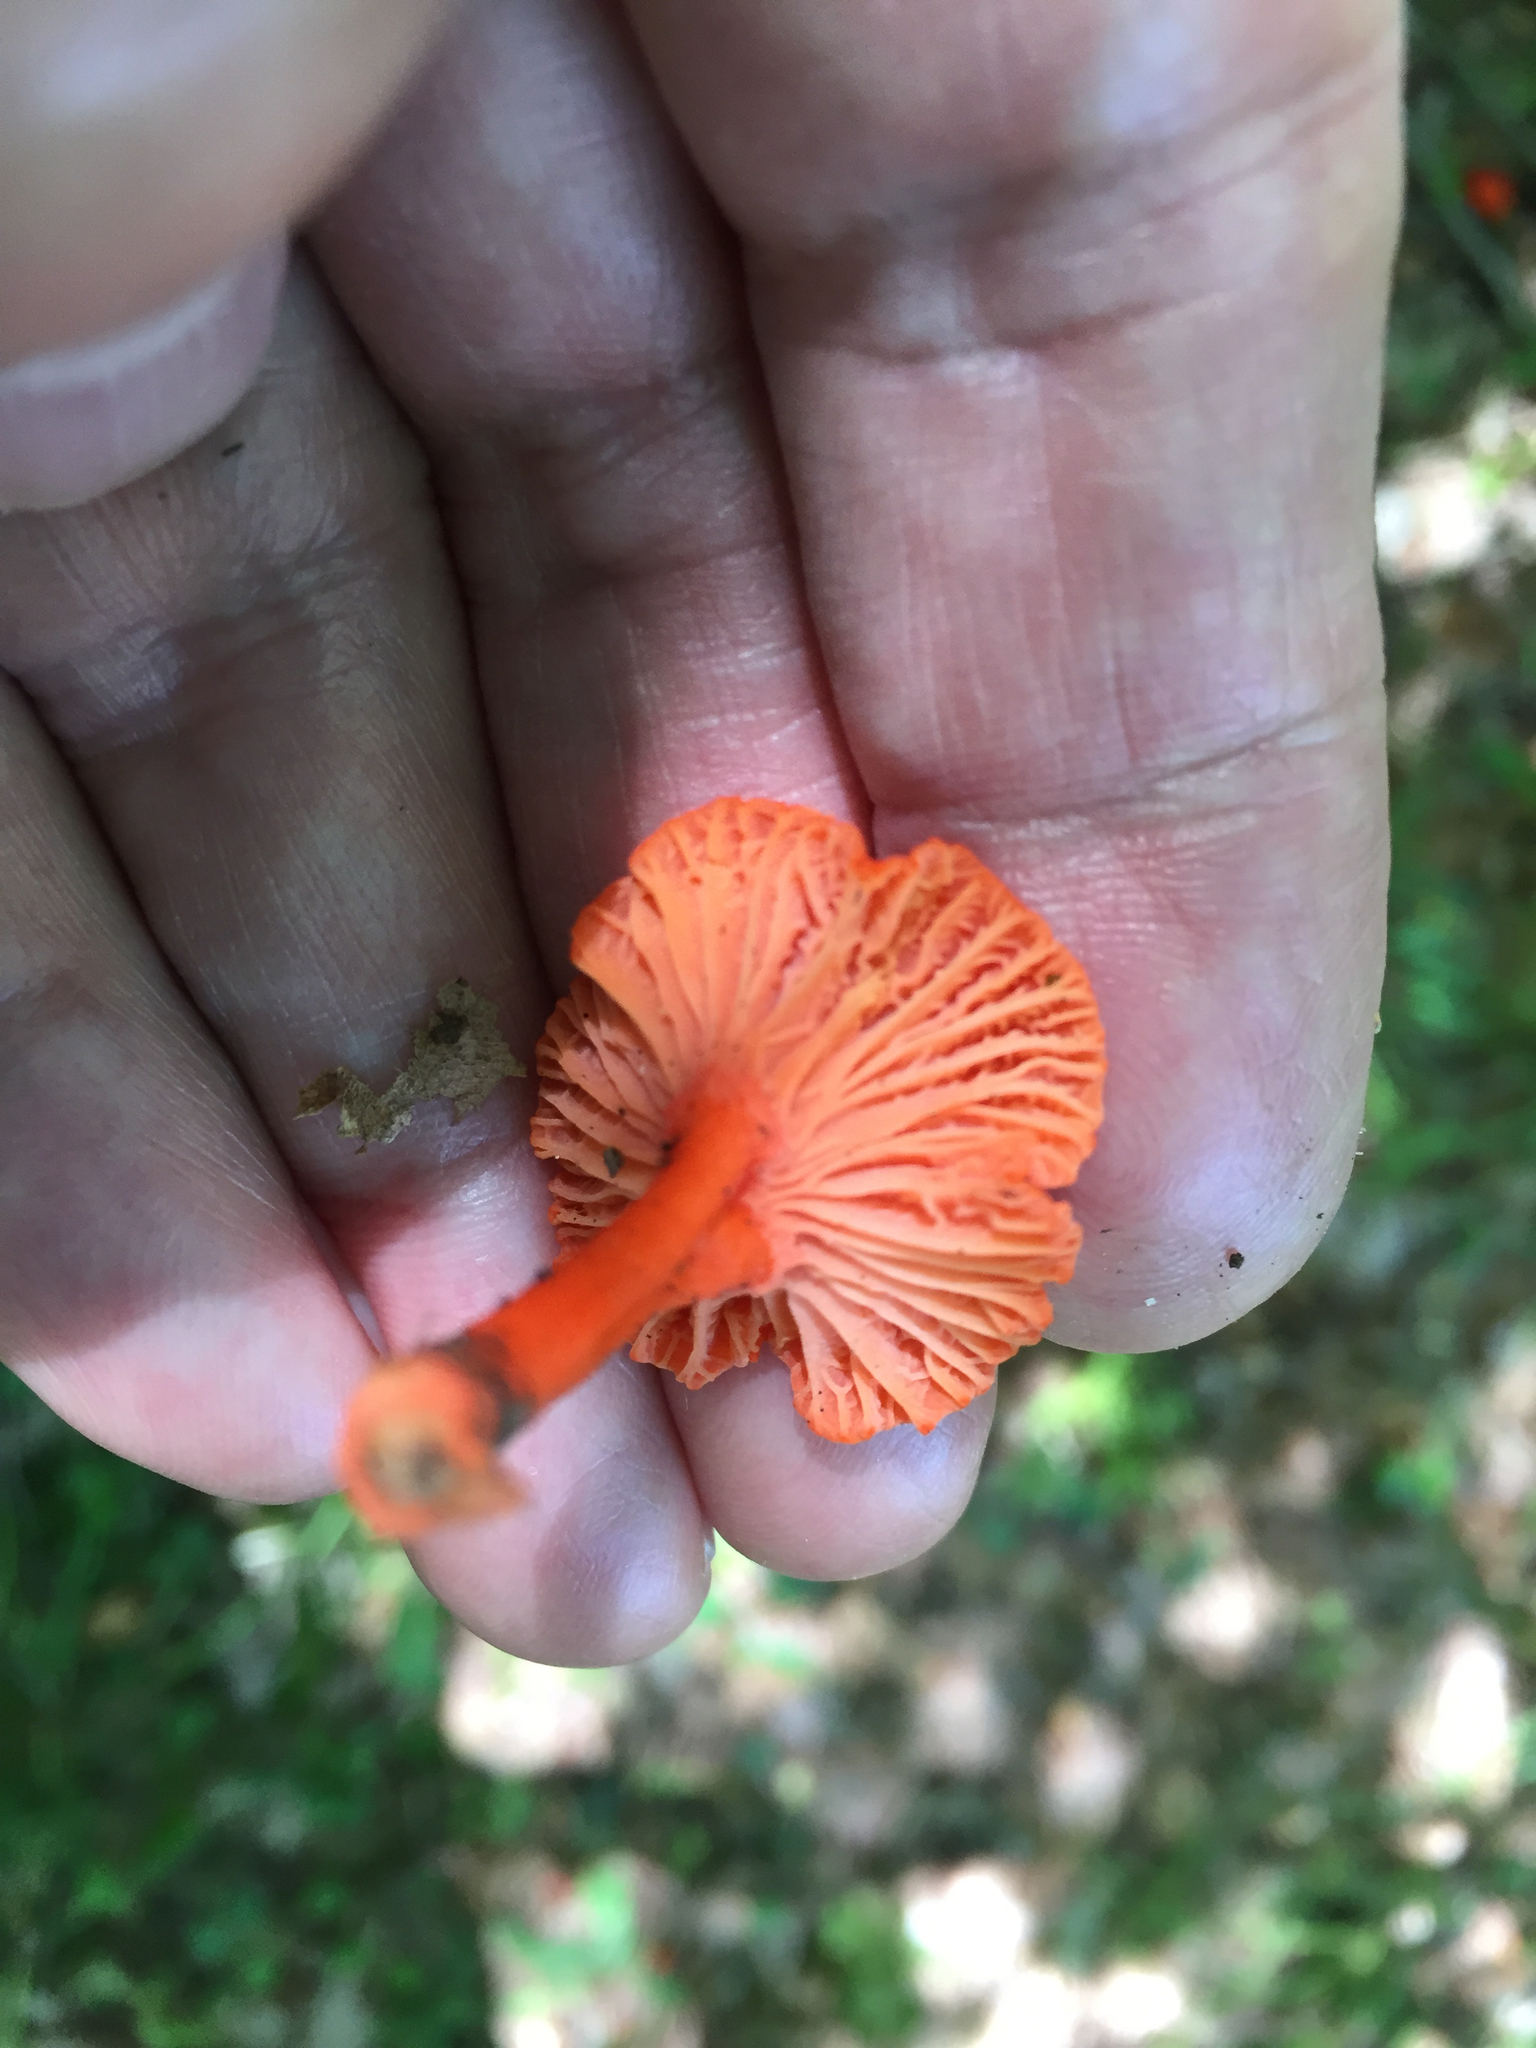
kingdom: Fungi
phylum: Basidiomycota
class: Agaricomycetes
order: Cantharellales
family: Hydnaceae
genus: Cantharellus
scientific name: Cantharellus cinnabarinus
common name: Cinnabar chanterelle
